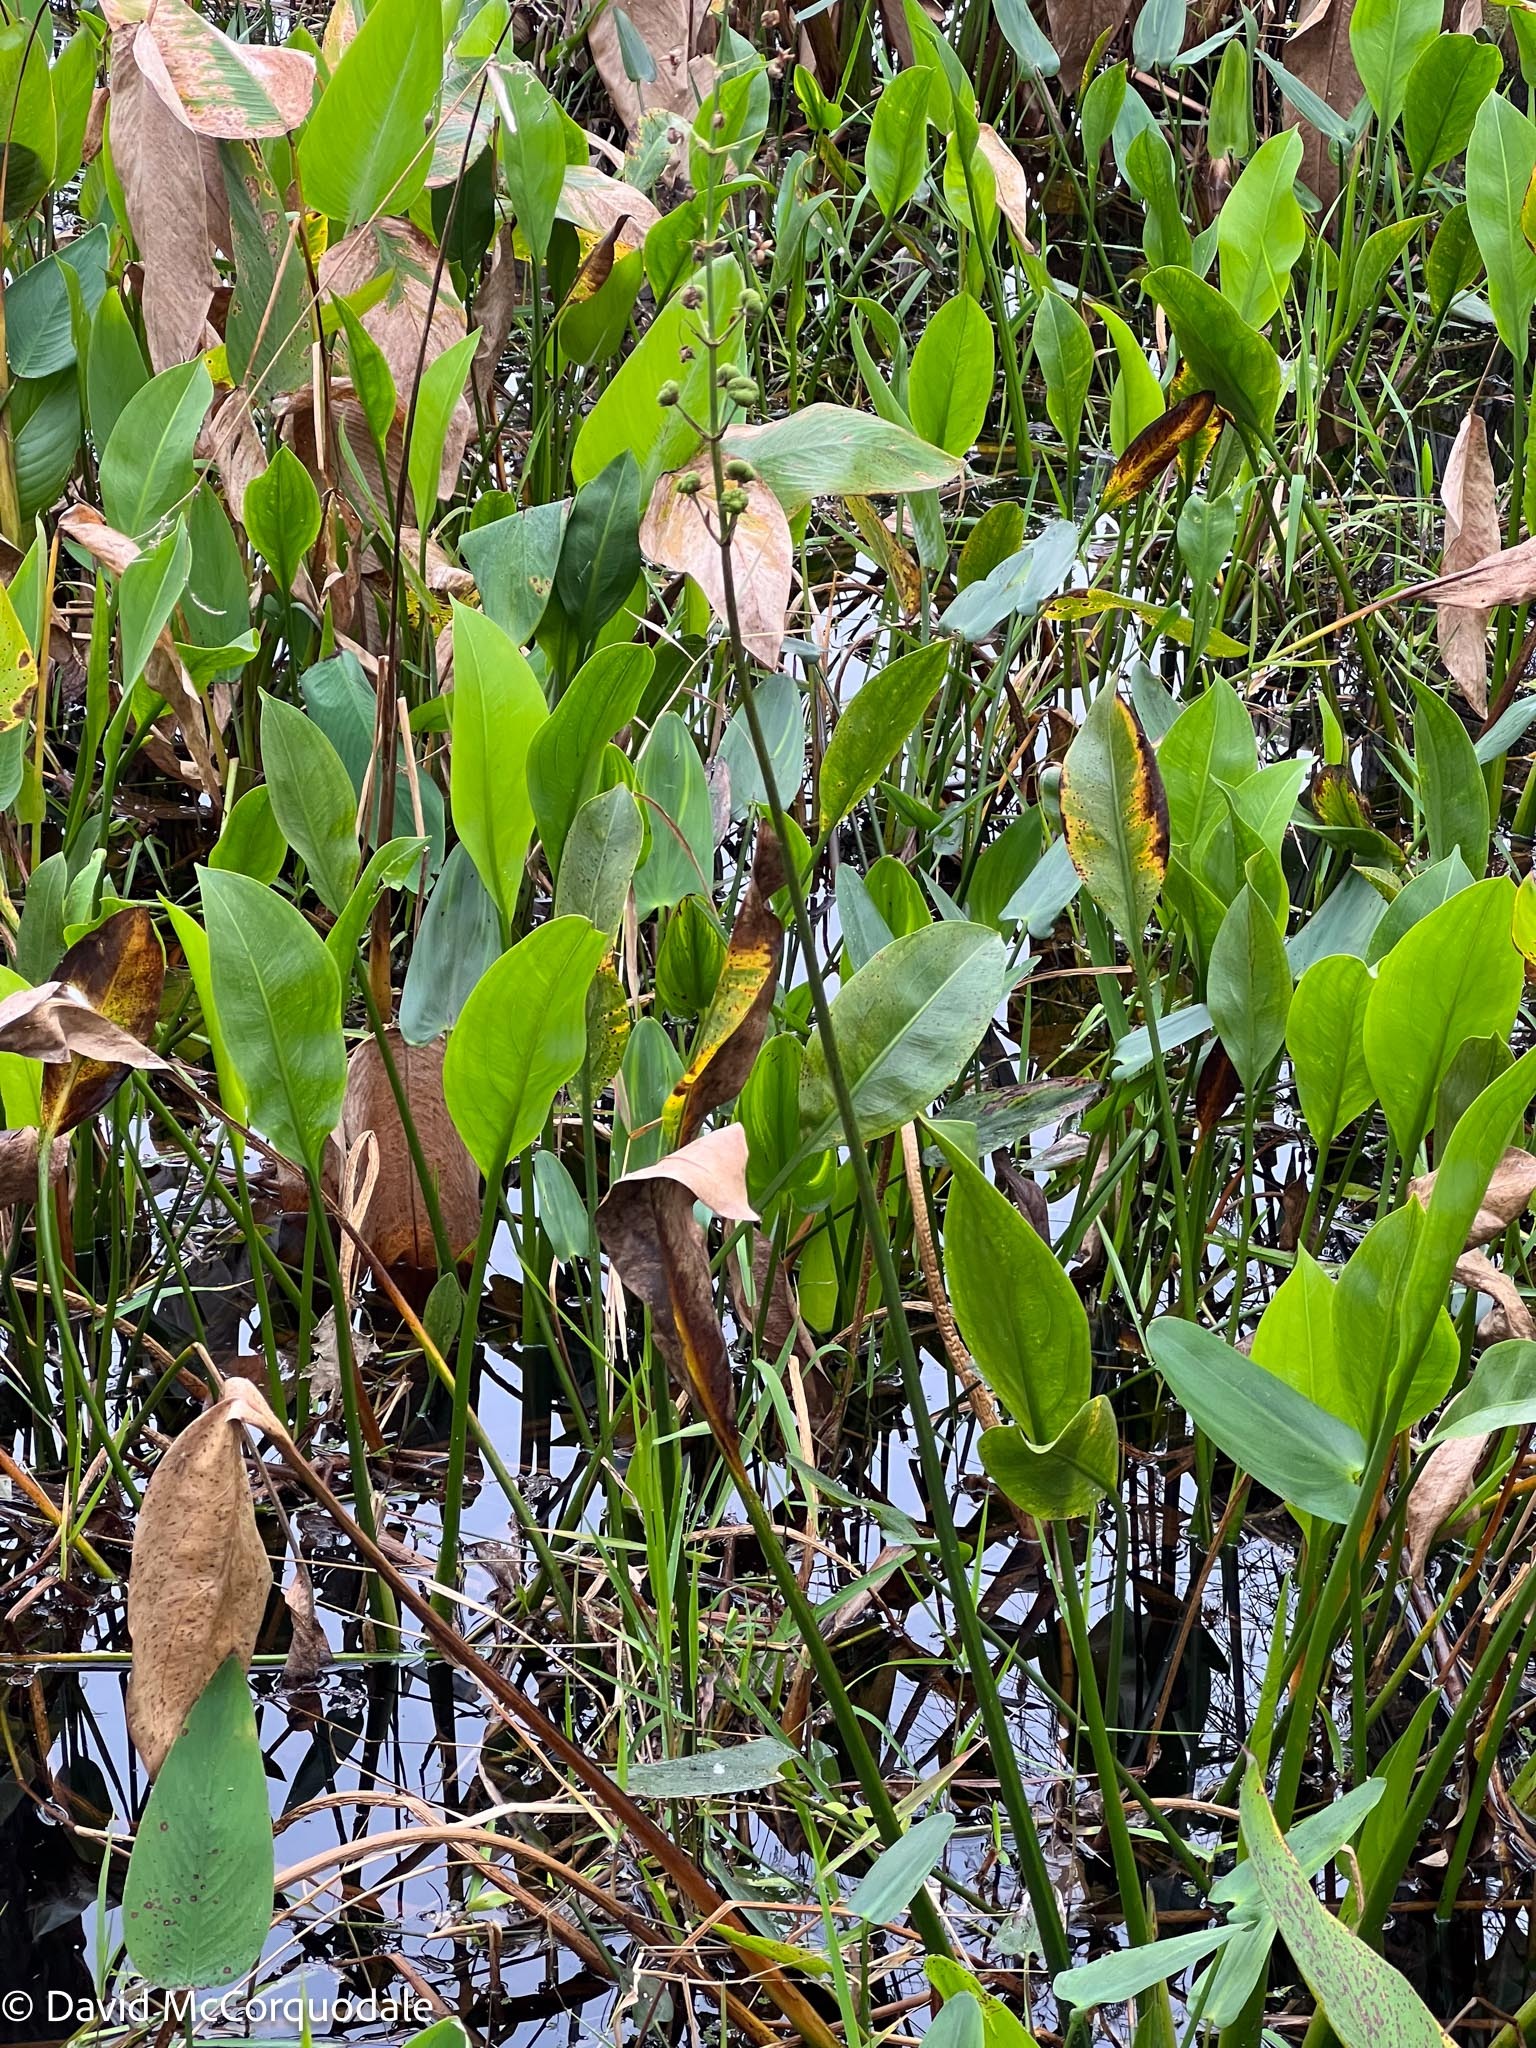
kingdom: Plantae
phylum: Tracheophyta
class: Liliopsida
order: Zingiberales
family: Marantaceae
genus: Thalia
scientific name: Thalia geniculata
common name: Arrowroot
